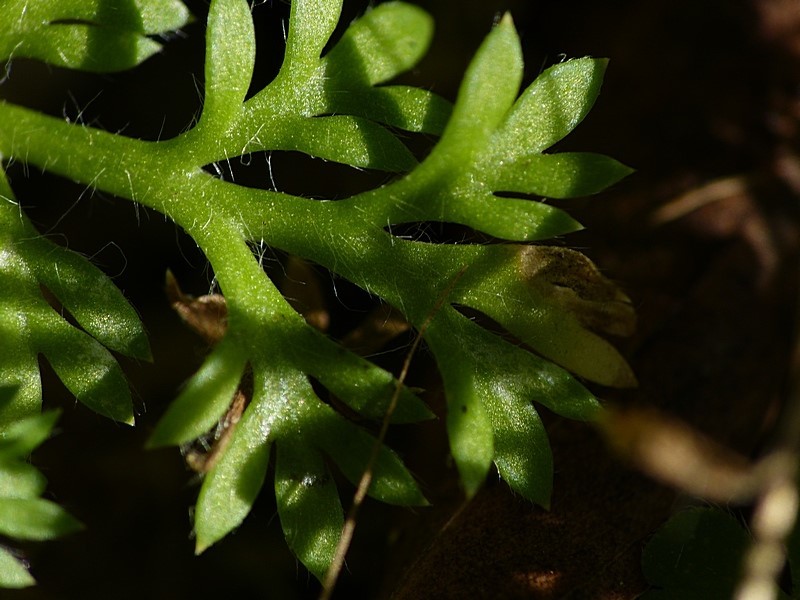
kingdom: Plantae
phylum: Tracheophyta
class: Magnoliopsida
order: Asterales
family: Asteraceae
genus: Cotula
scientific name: Cotula australis
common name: Australian waterbuttons
